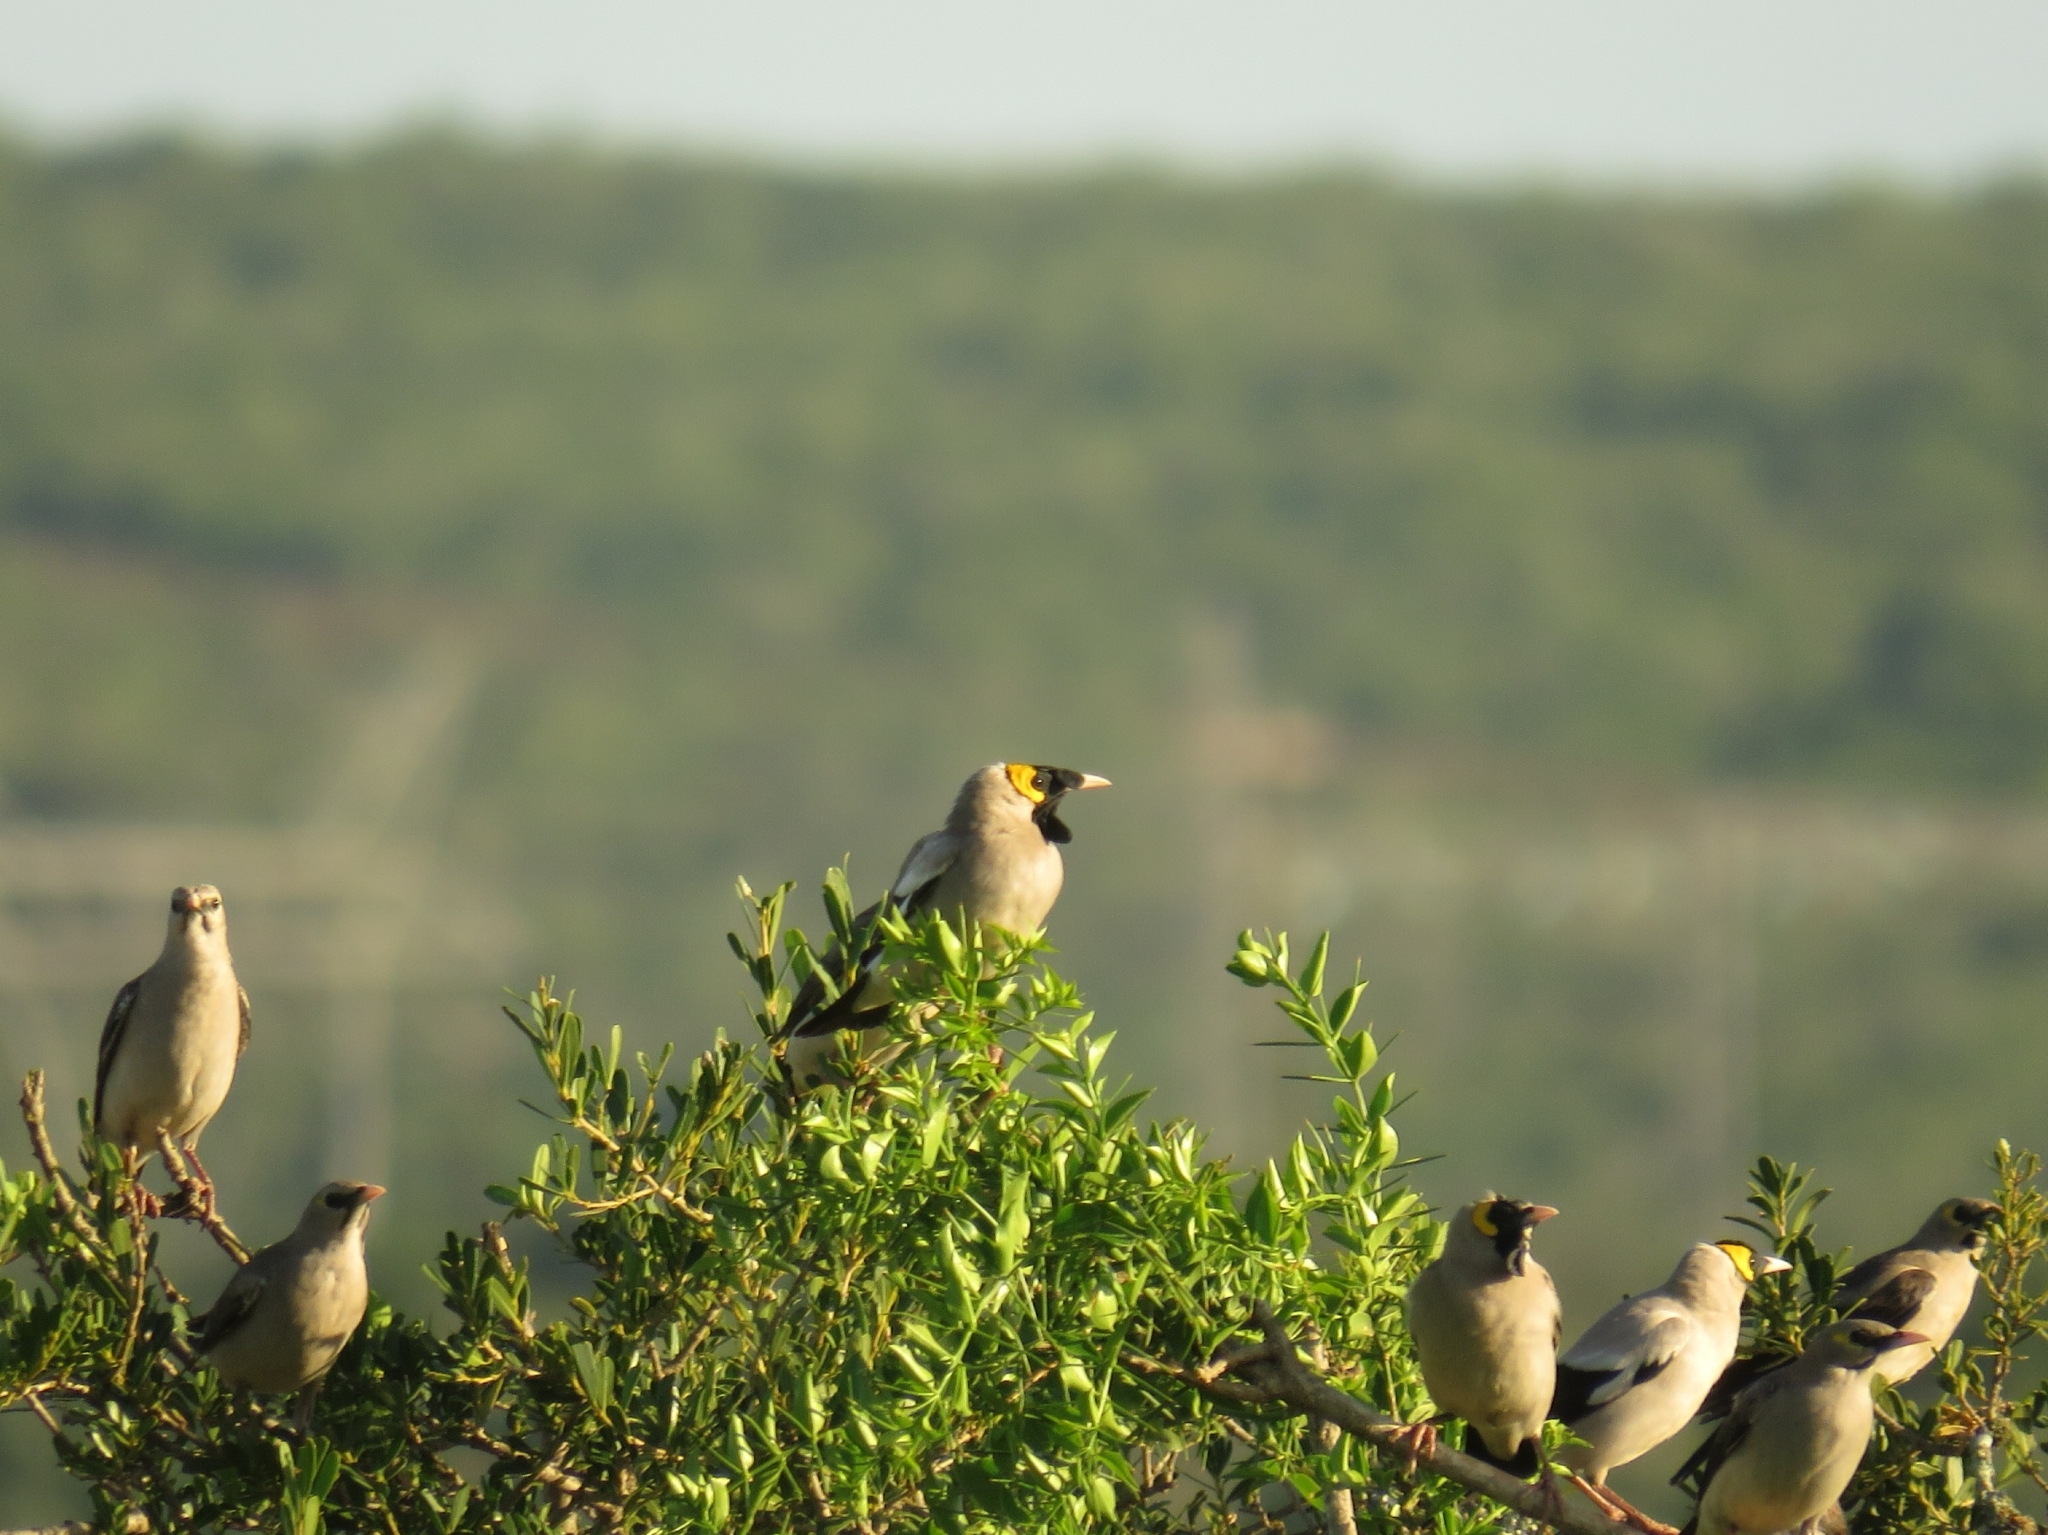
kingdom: Animalia
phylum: Chordata
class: Aves
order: Passeriformes
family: Sturnidae
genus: Creatophora
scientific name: Creatophora cinerea
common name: Wattled starling
